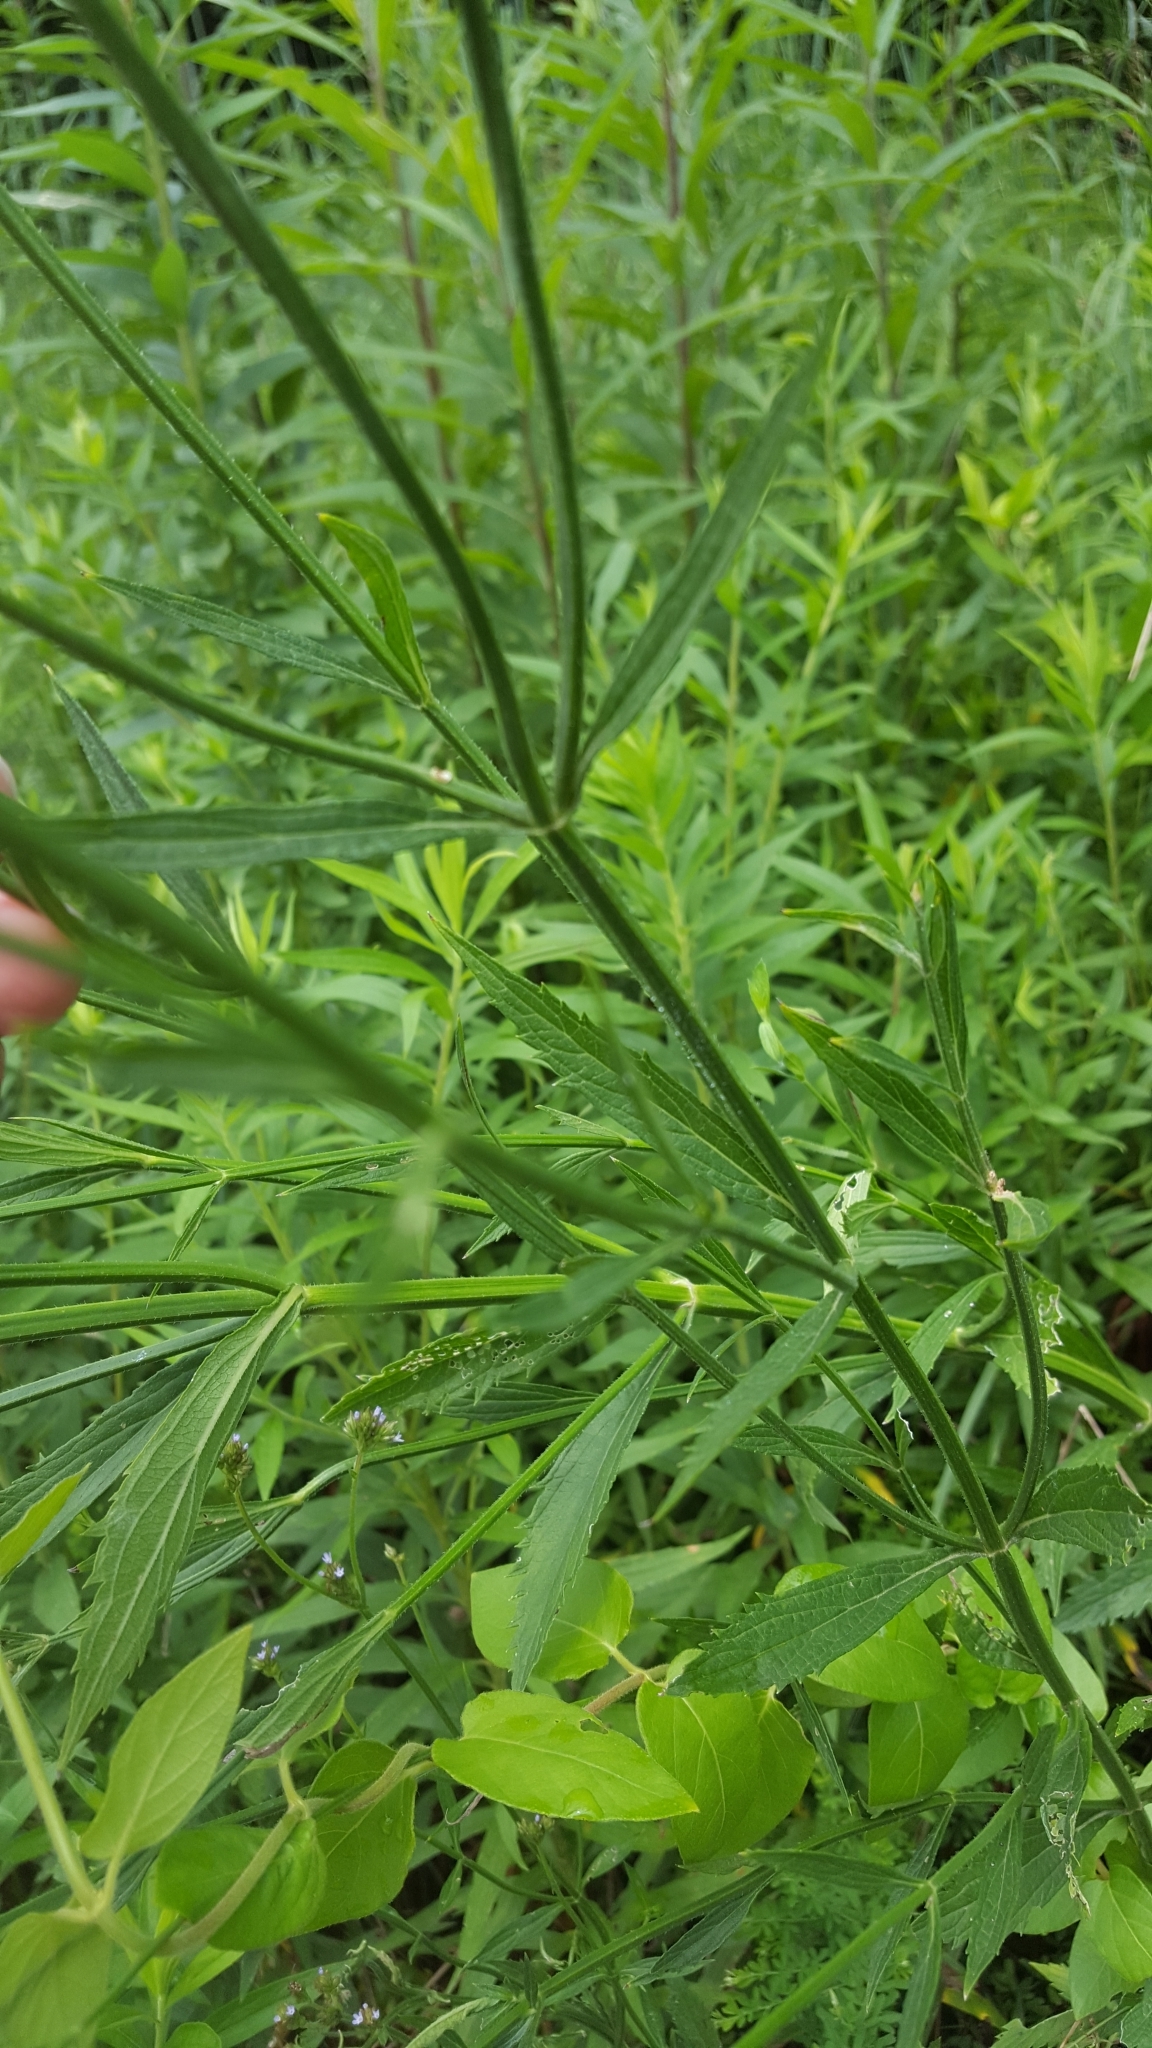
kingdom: Plantae
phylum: Tracheophyta
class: Magnoliopsida
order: Lamiales
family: Verbenaceae
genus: Verbena
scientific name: Verbena brasiliensis
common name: Brazilian vervain
